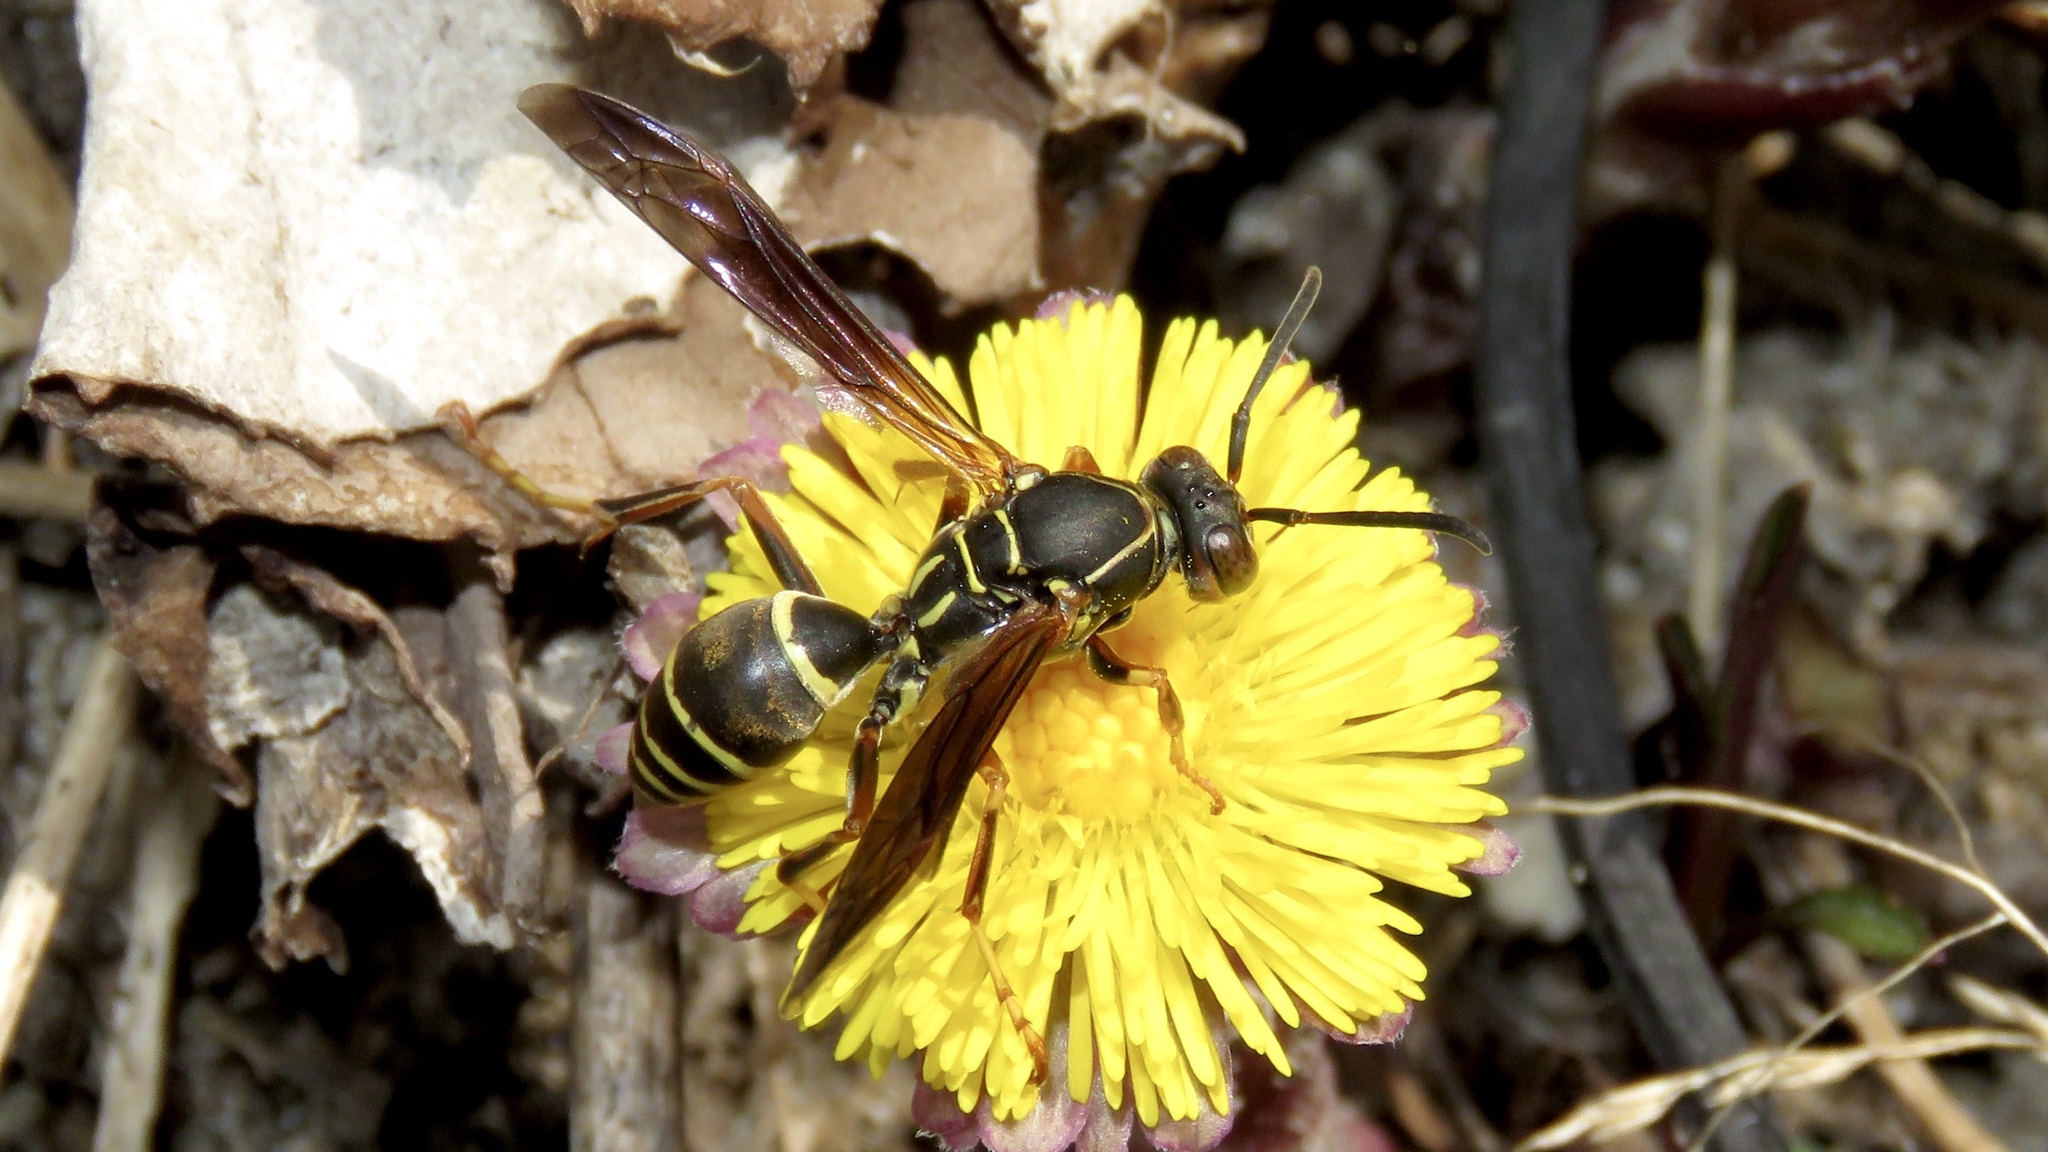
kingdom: Animalia
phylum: Arthropoda
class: Insecta
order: Hymenoptera
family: Eumenidae
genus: Polistes
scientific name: Polistes fuscatus
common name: Dark paper wasp
